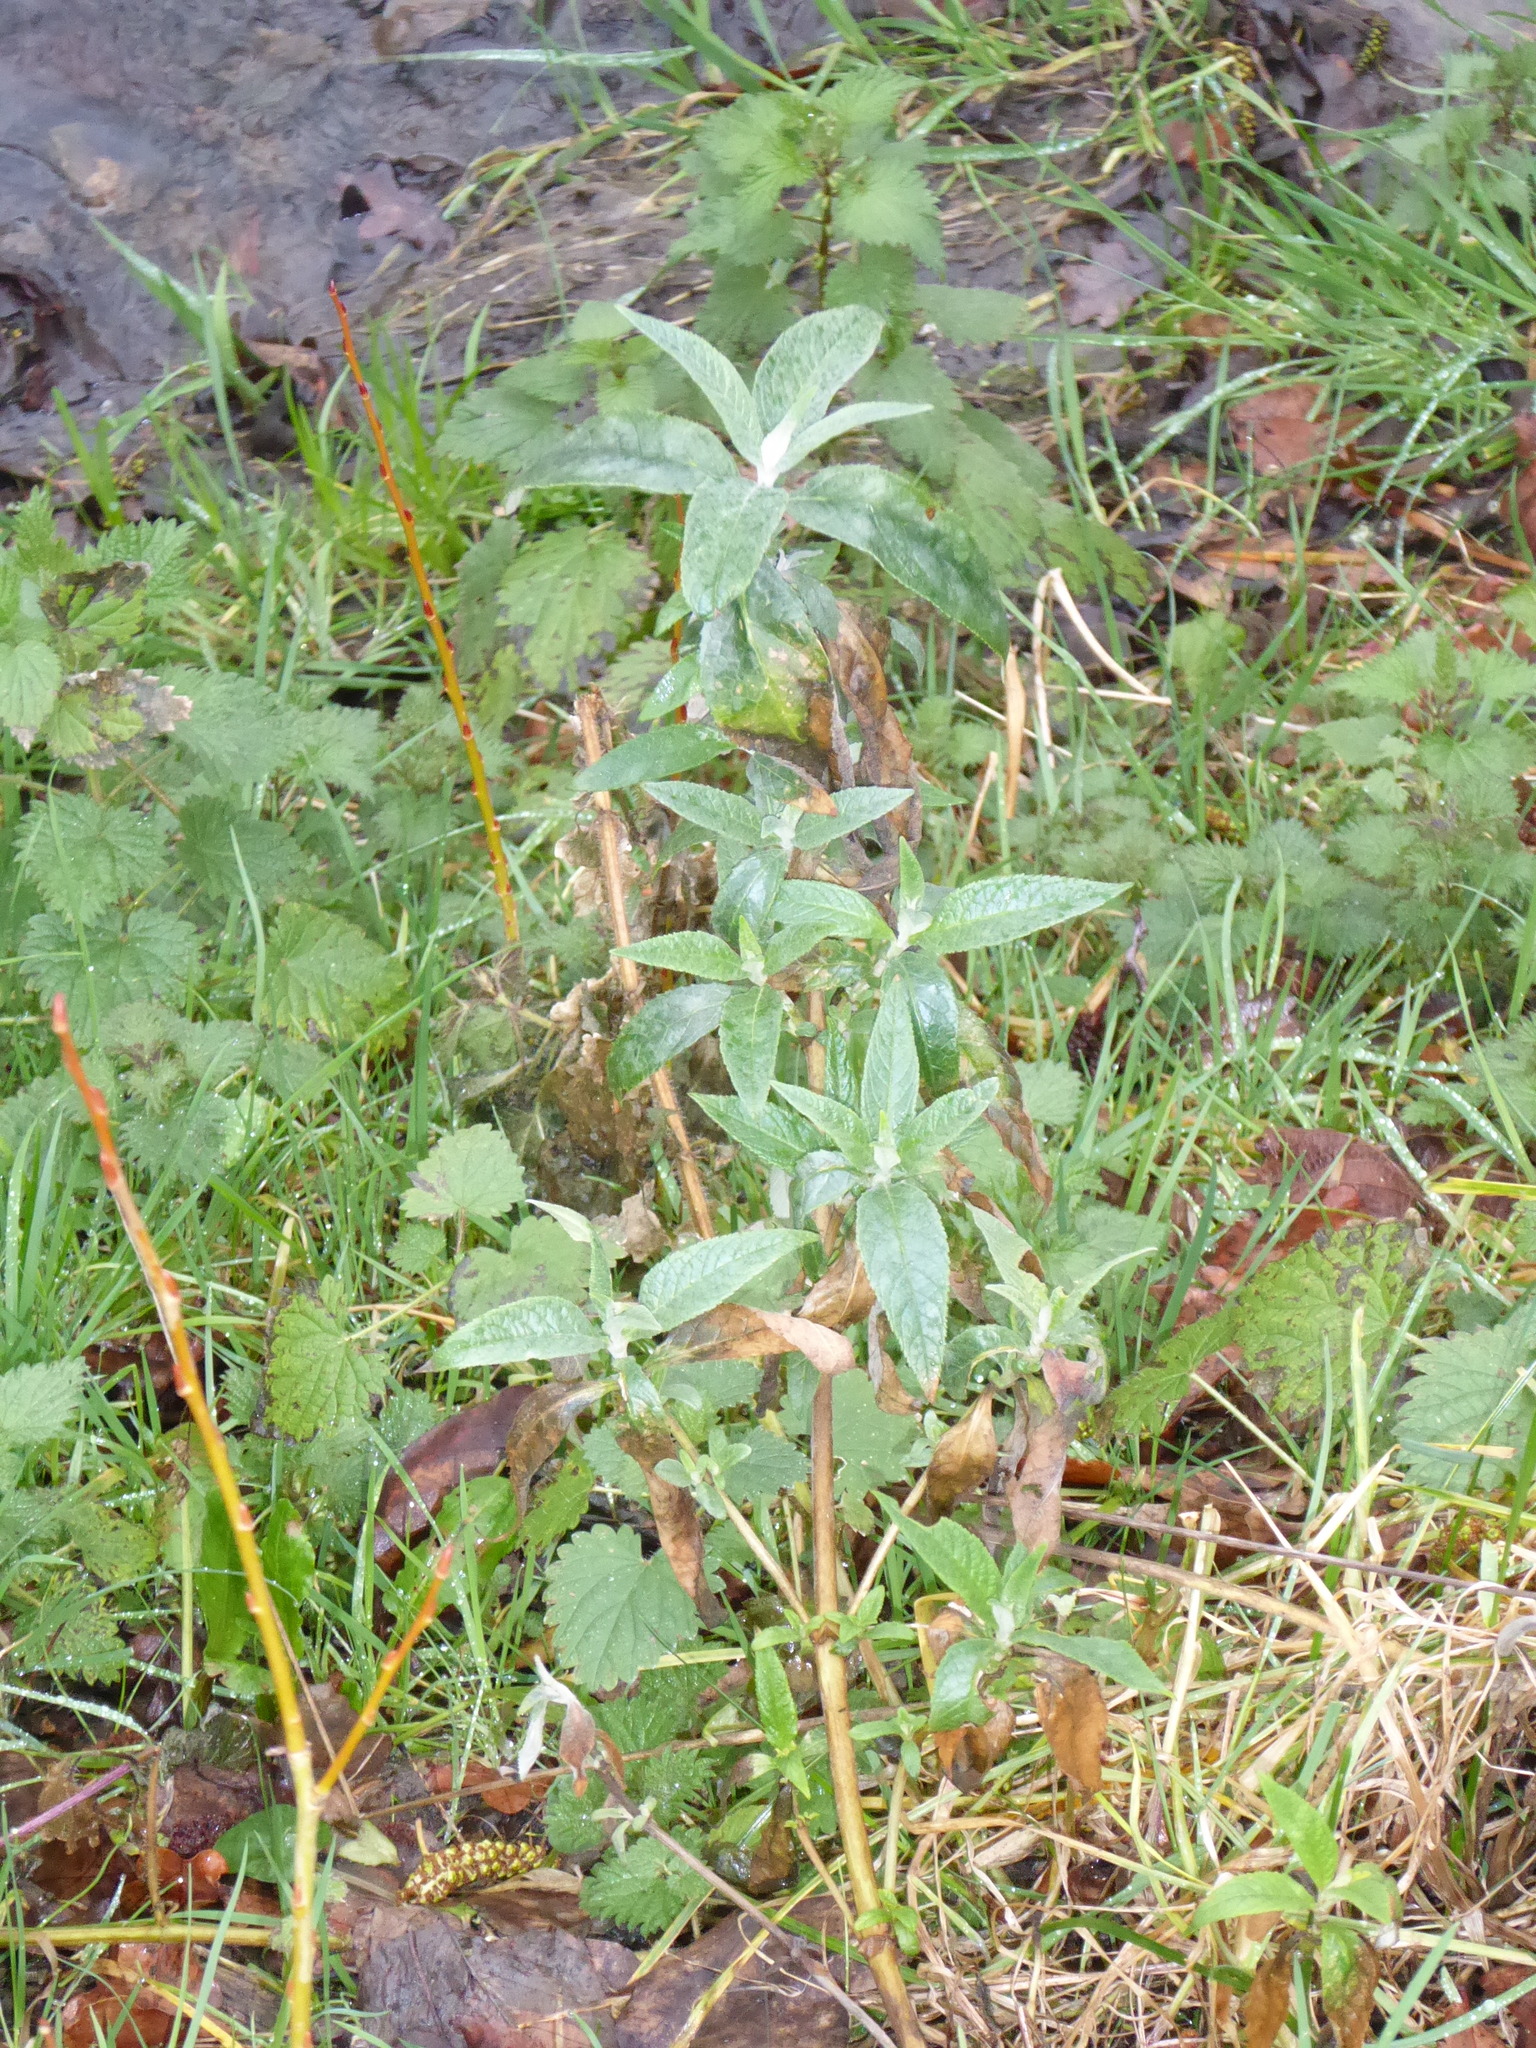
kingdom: Plantae
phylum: Tracheophyta
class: Magnoliopsida
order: Lamiales
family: Scrophulariaceae
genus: Buddleja
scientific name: Buddleja davidii
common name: Butterfly-bush
